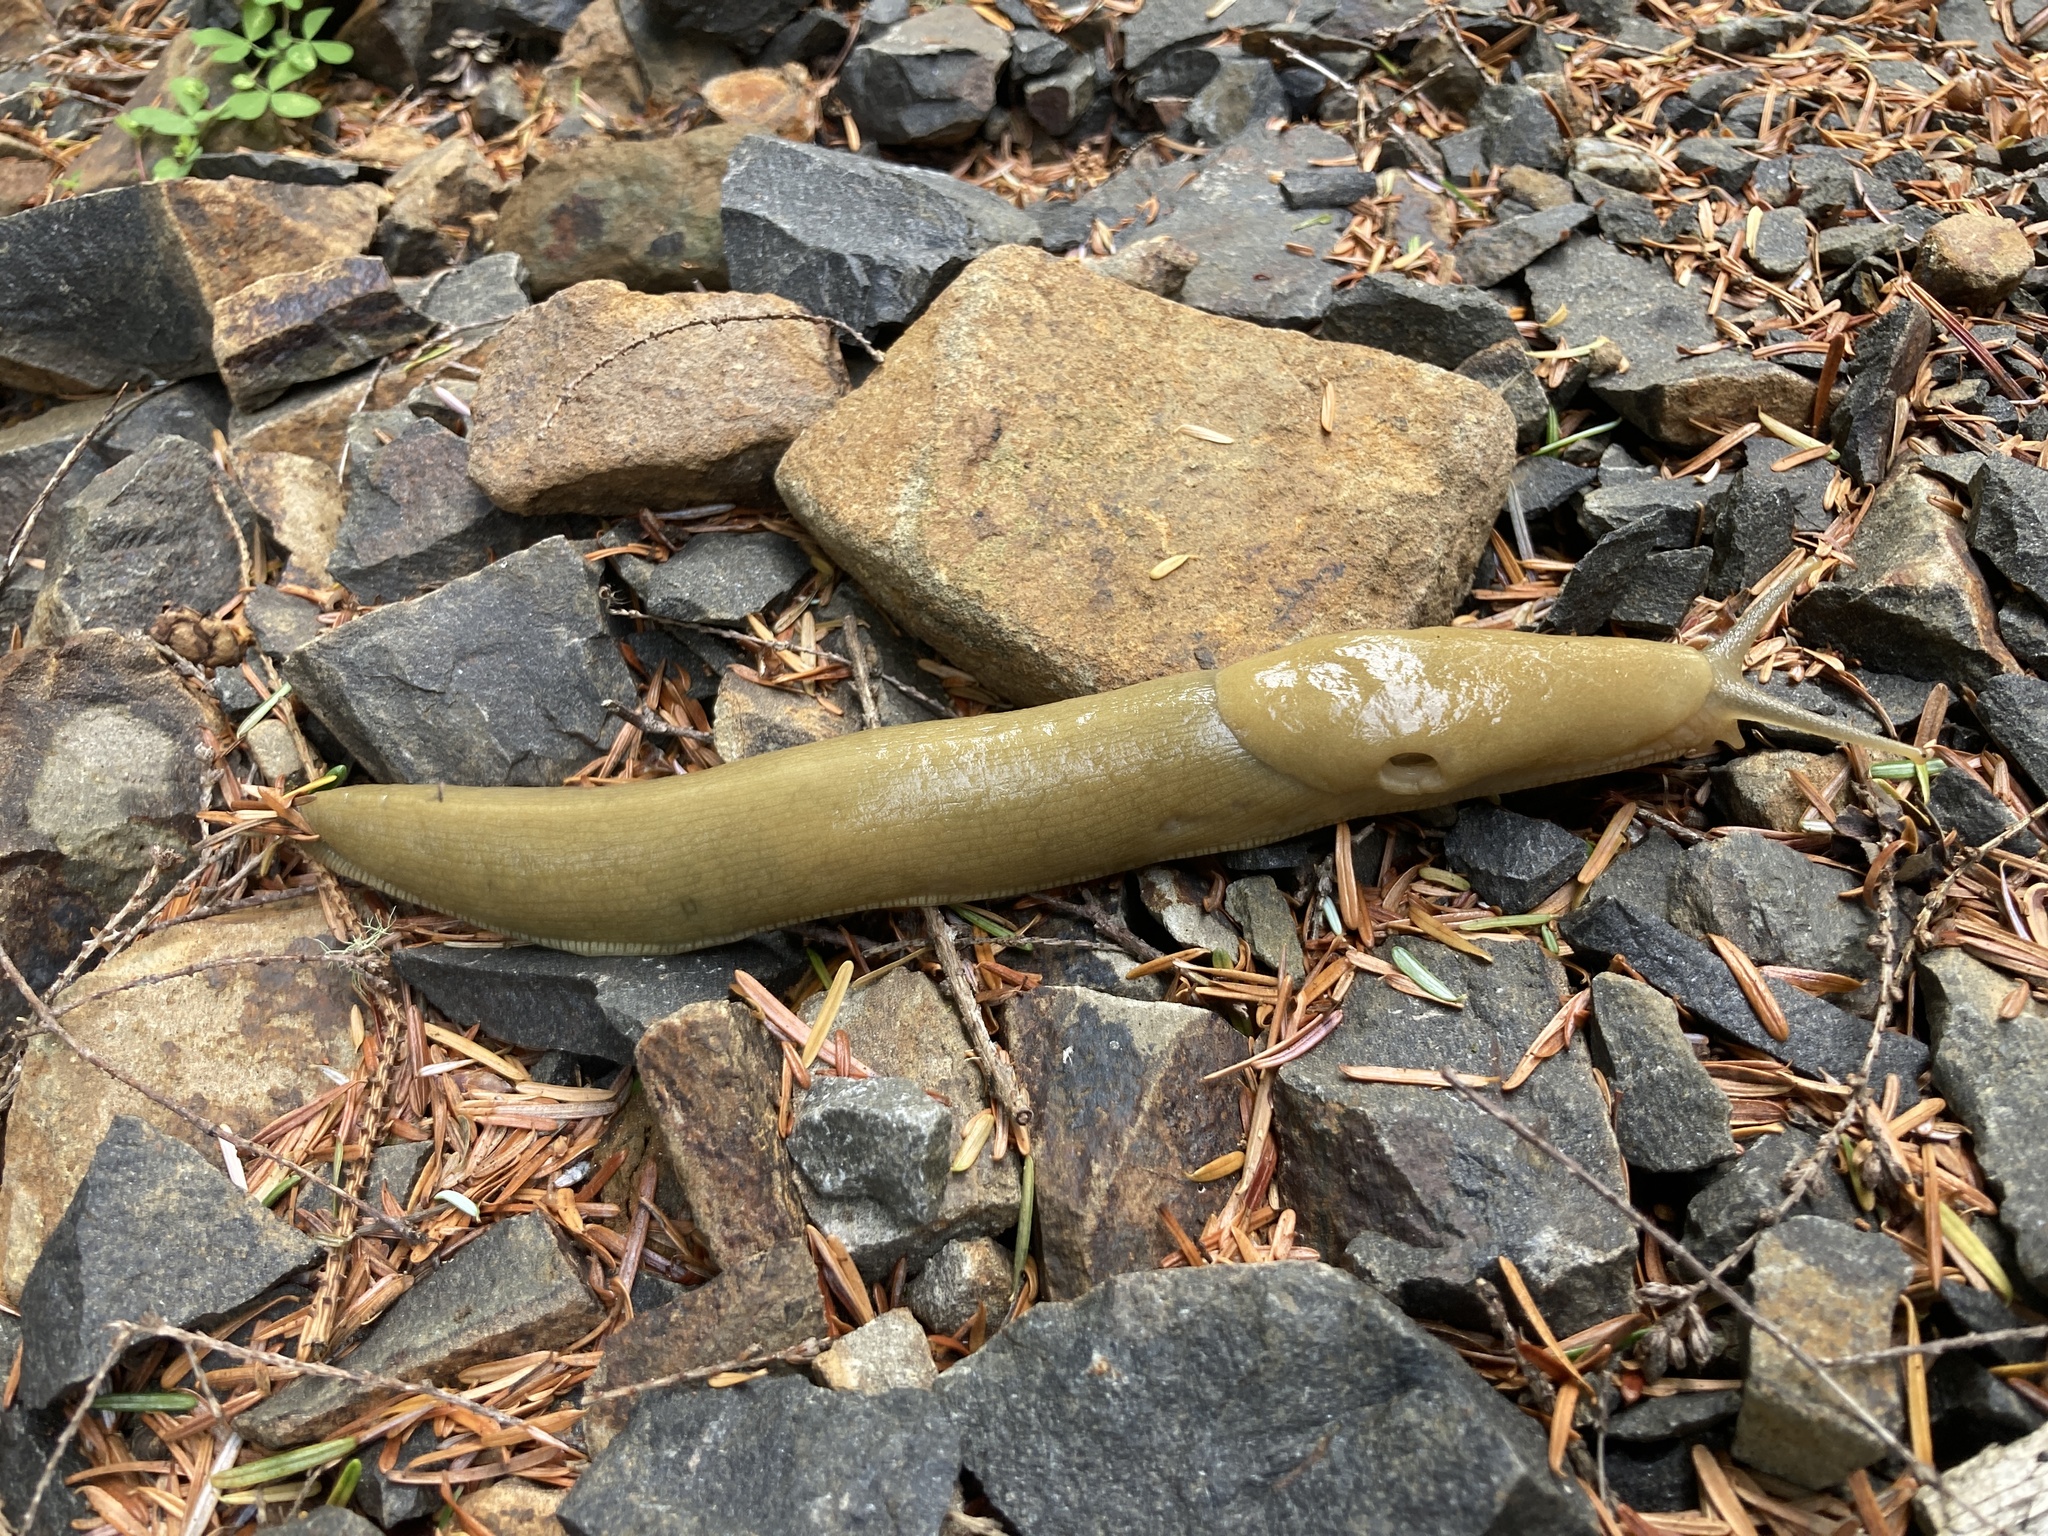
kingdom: Animalia
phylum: Mollusca
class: Gastropoda
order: Stylommatophora
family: Ariolimacidae
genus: Ariolimax
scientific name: Ariolimax columbianus
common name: Pacific banana slug
